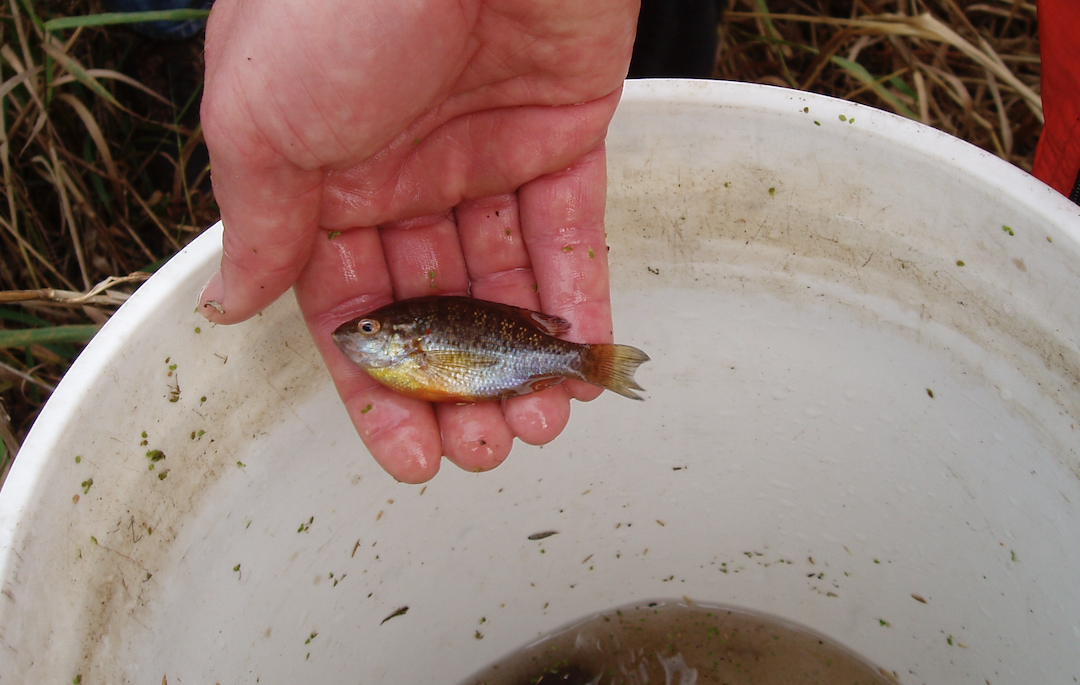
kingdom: Animalia
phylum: Chordata
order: Perciformes
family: Centrarchidae
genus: Lepomis
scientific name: Lepomis gibbosus
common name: Pumpkinseed
